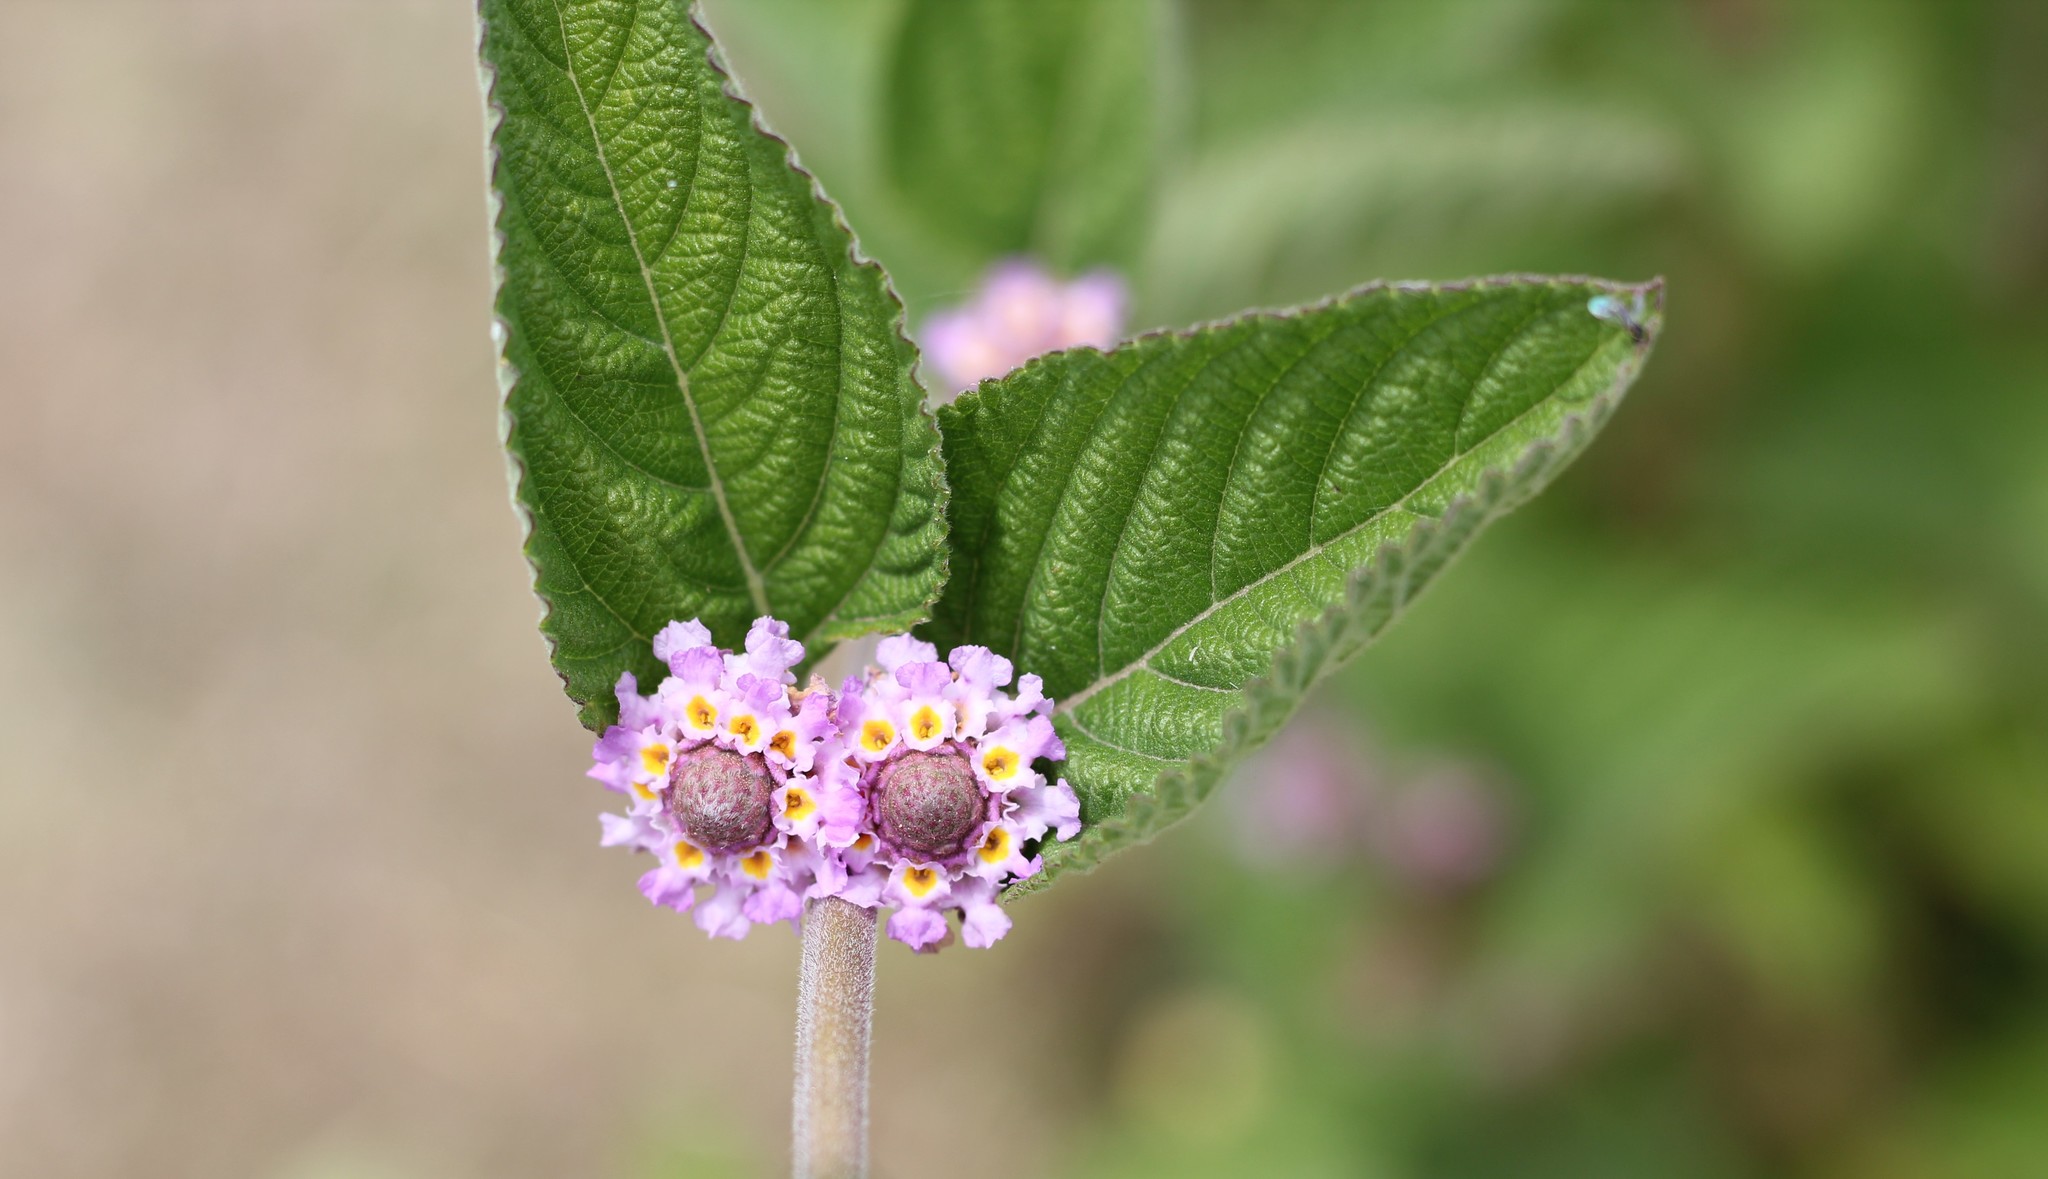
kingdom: Plantae
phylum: Tracheophyta
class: Magnoliopsida
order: Lamiales
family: Verbenaceae
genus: Lippia
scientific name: Lippia alba
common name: Bushy matgrass
